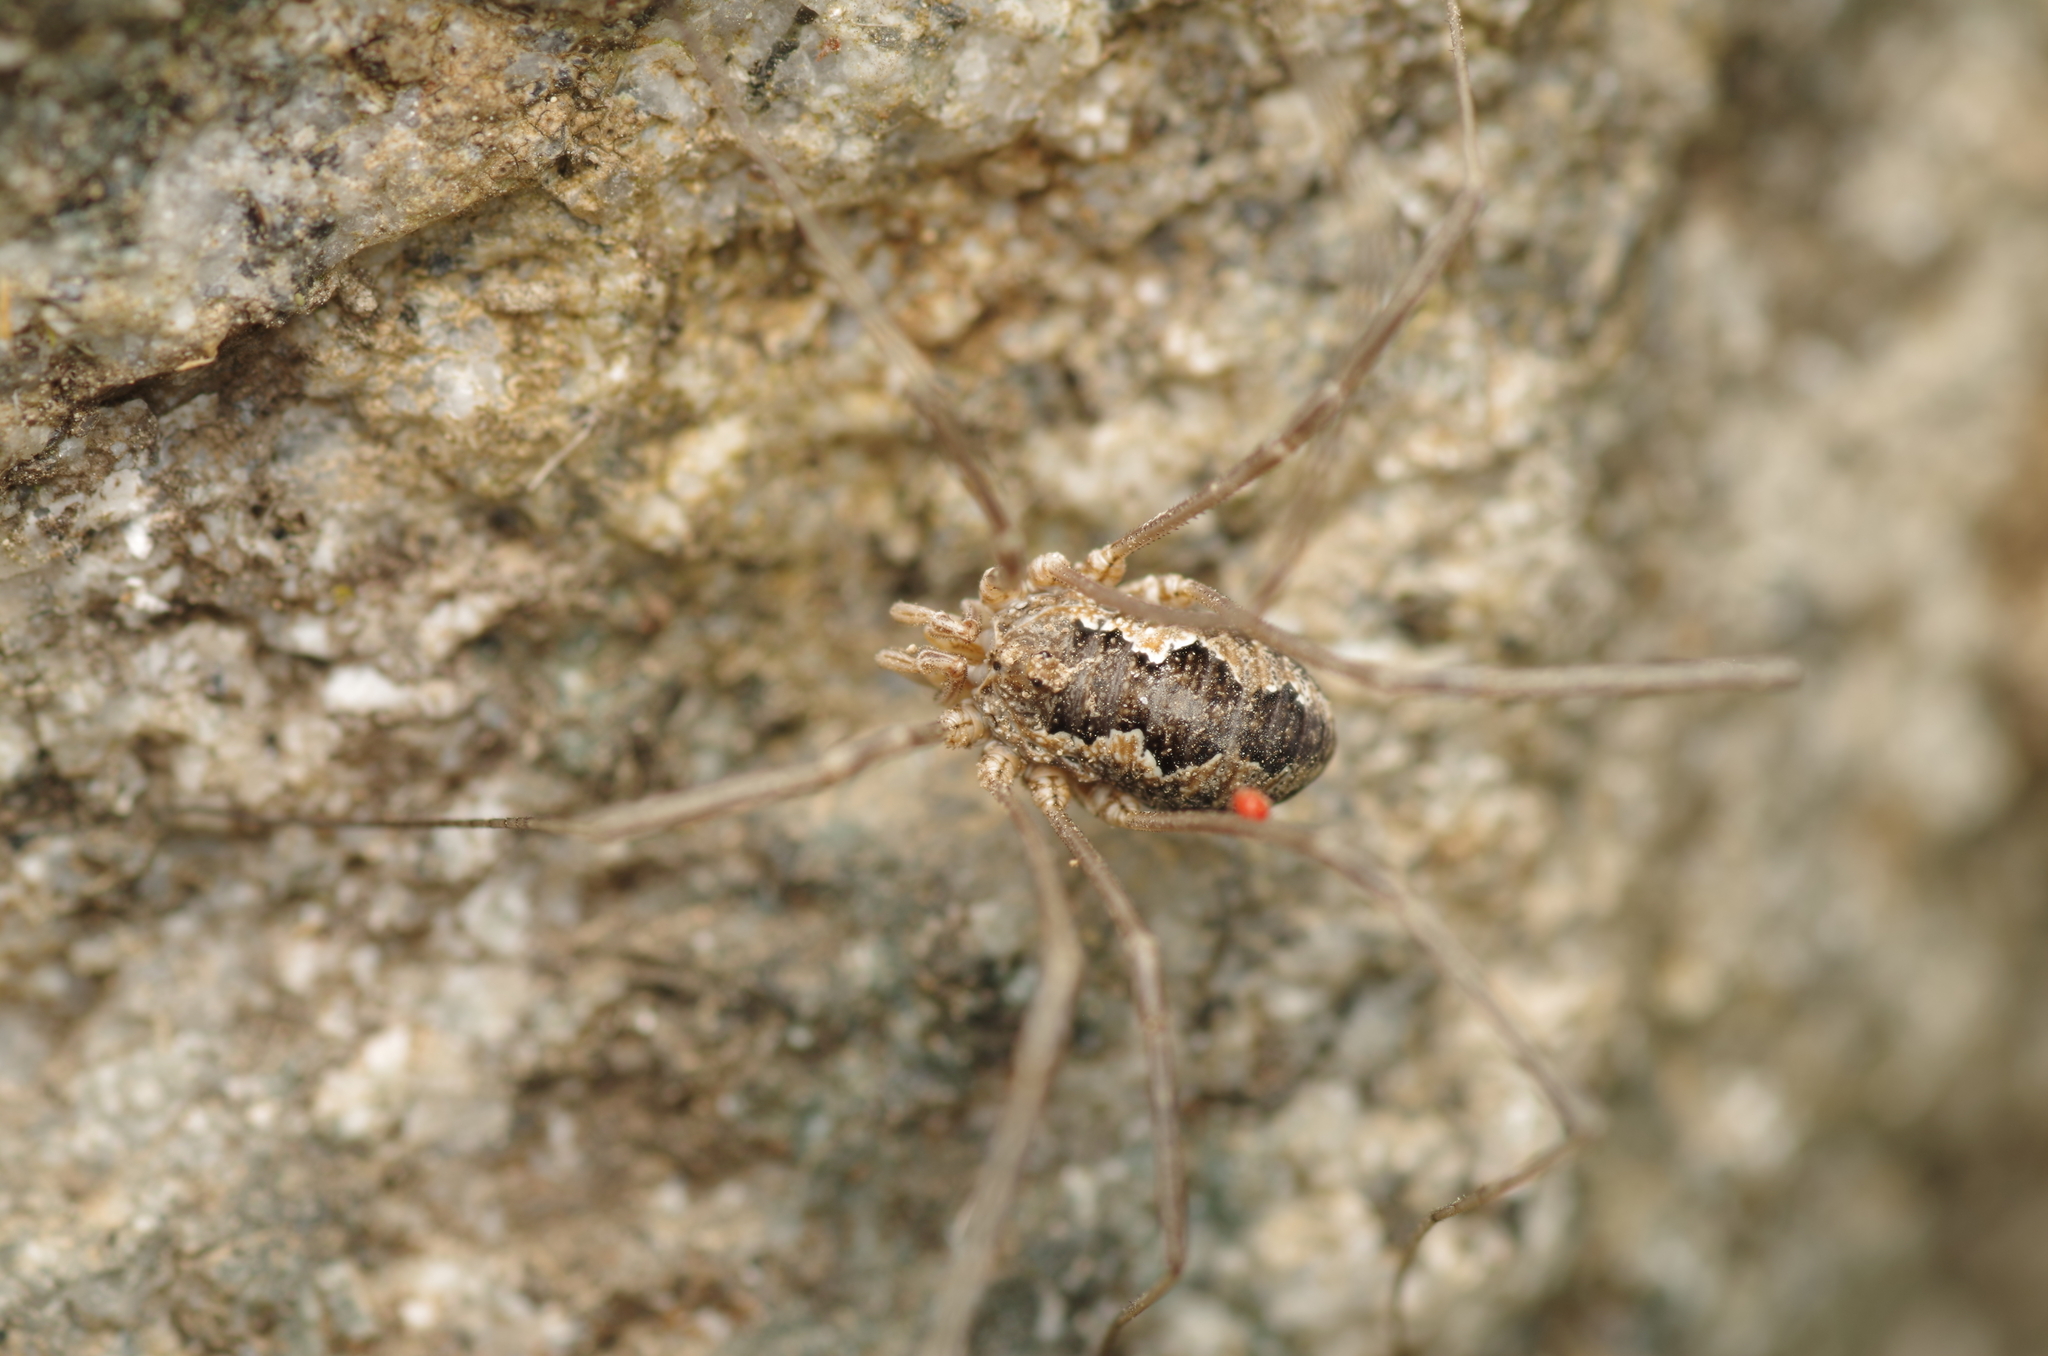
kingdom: Animalia
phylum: Arthropoda
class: Arachnida
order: Opiliones
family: Phalangiidae
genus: Phalangium
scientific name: Phalangium opilio
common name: Daddy longleg
